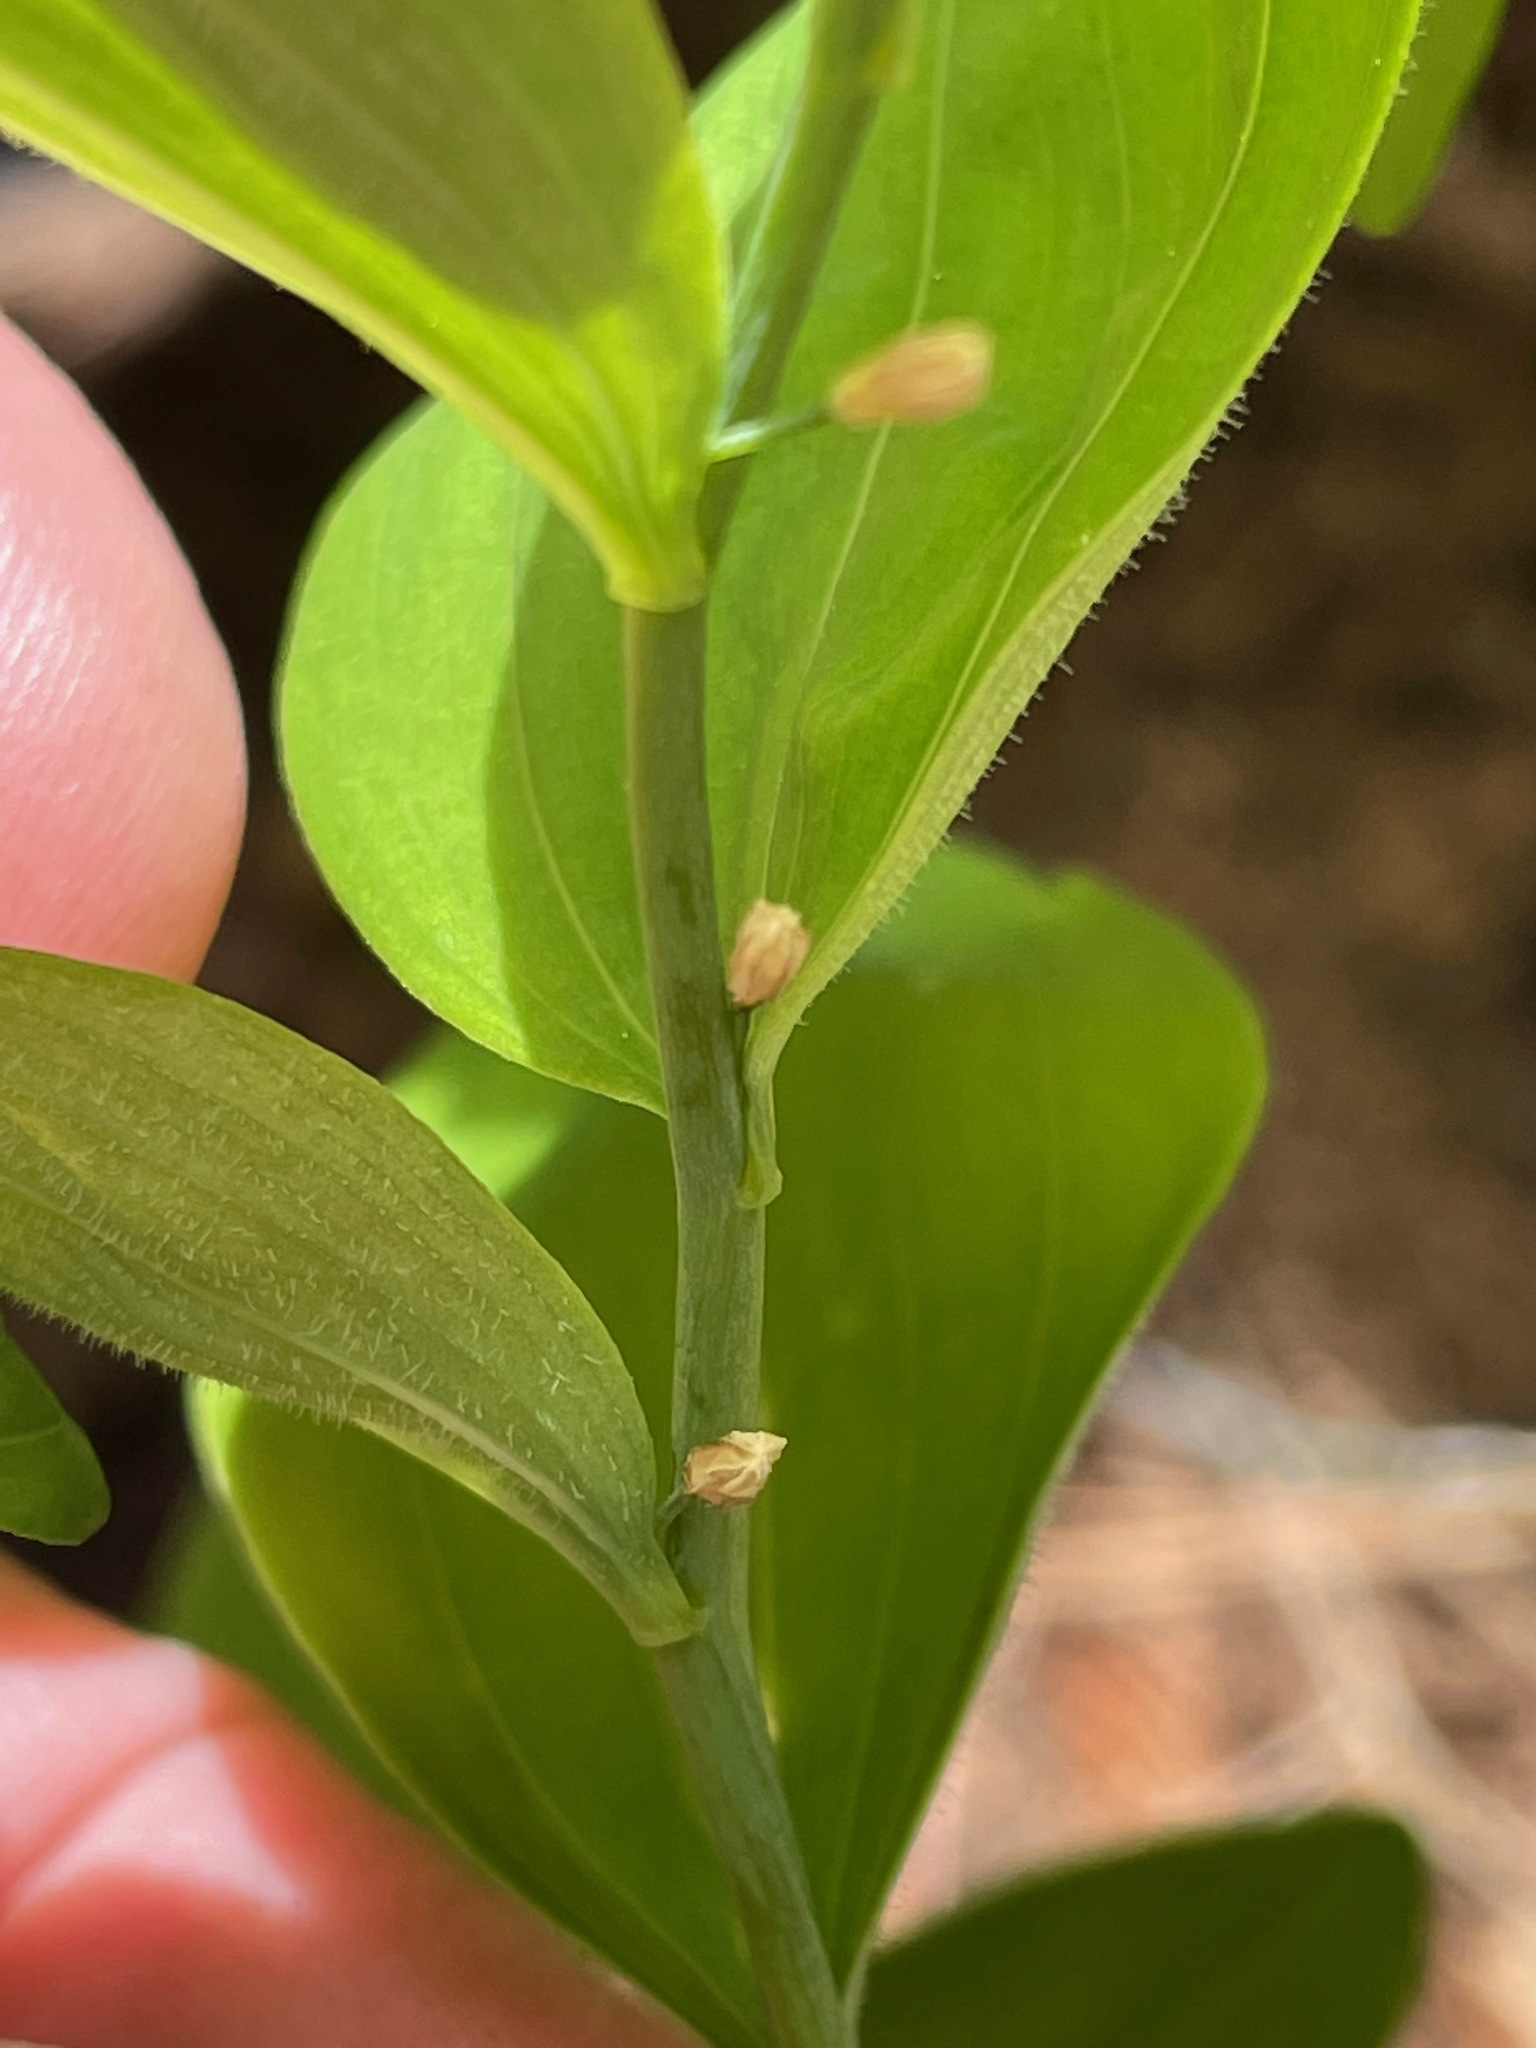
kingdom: Plantae
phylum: Tracheophyta
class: Liliopsida
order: Asparagales
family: Asparagaceae
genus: Polygonatum
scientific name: Polygonatum pubescens
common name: Downy solomon's seal
